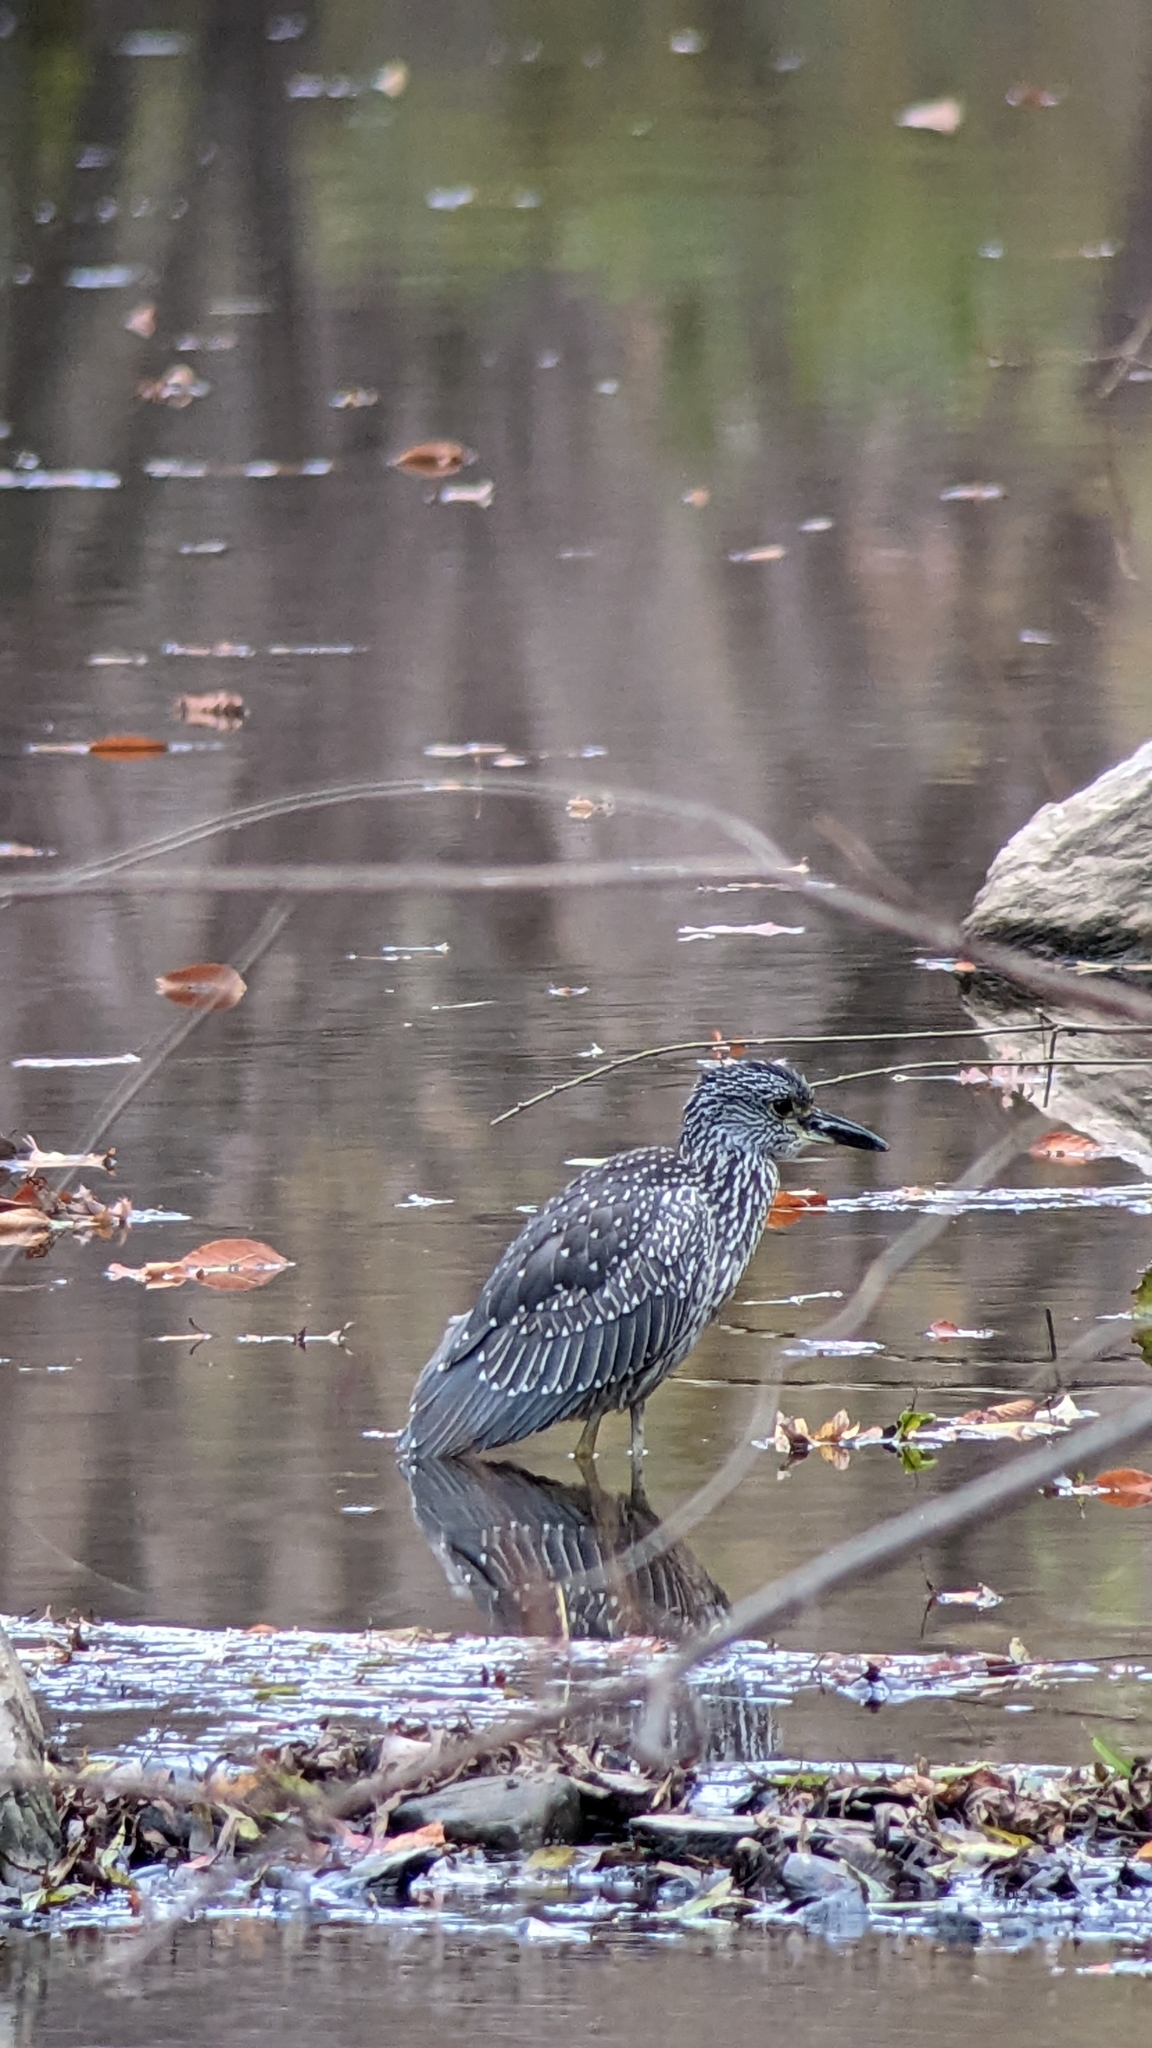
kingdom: Animalia
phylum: Chordata
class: Aves
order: Pelecaniformes
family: Ardeidae
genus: Nyctanassa
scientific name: Nyctanassa violacea
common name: Yellow-crowned night heron
